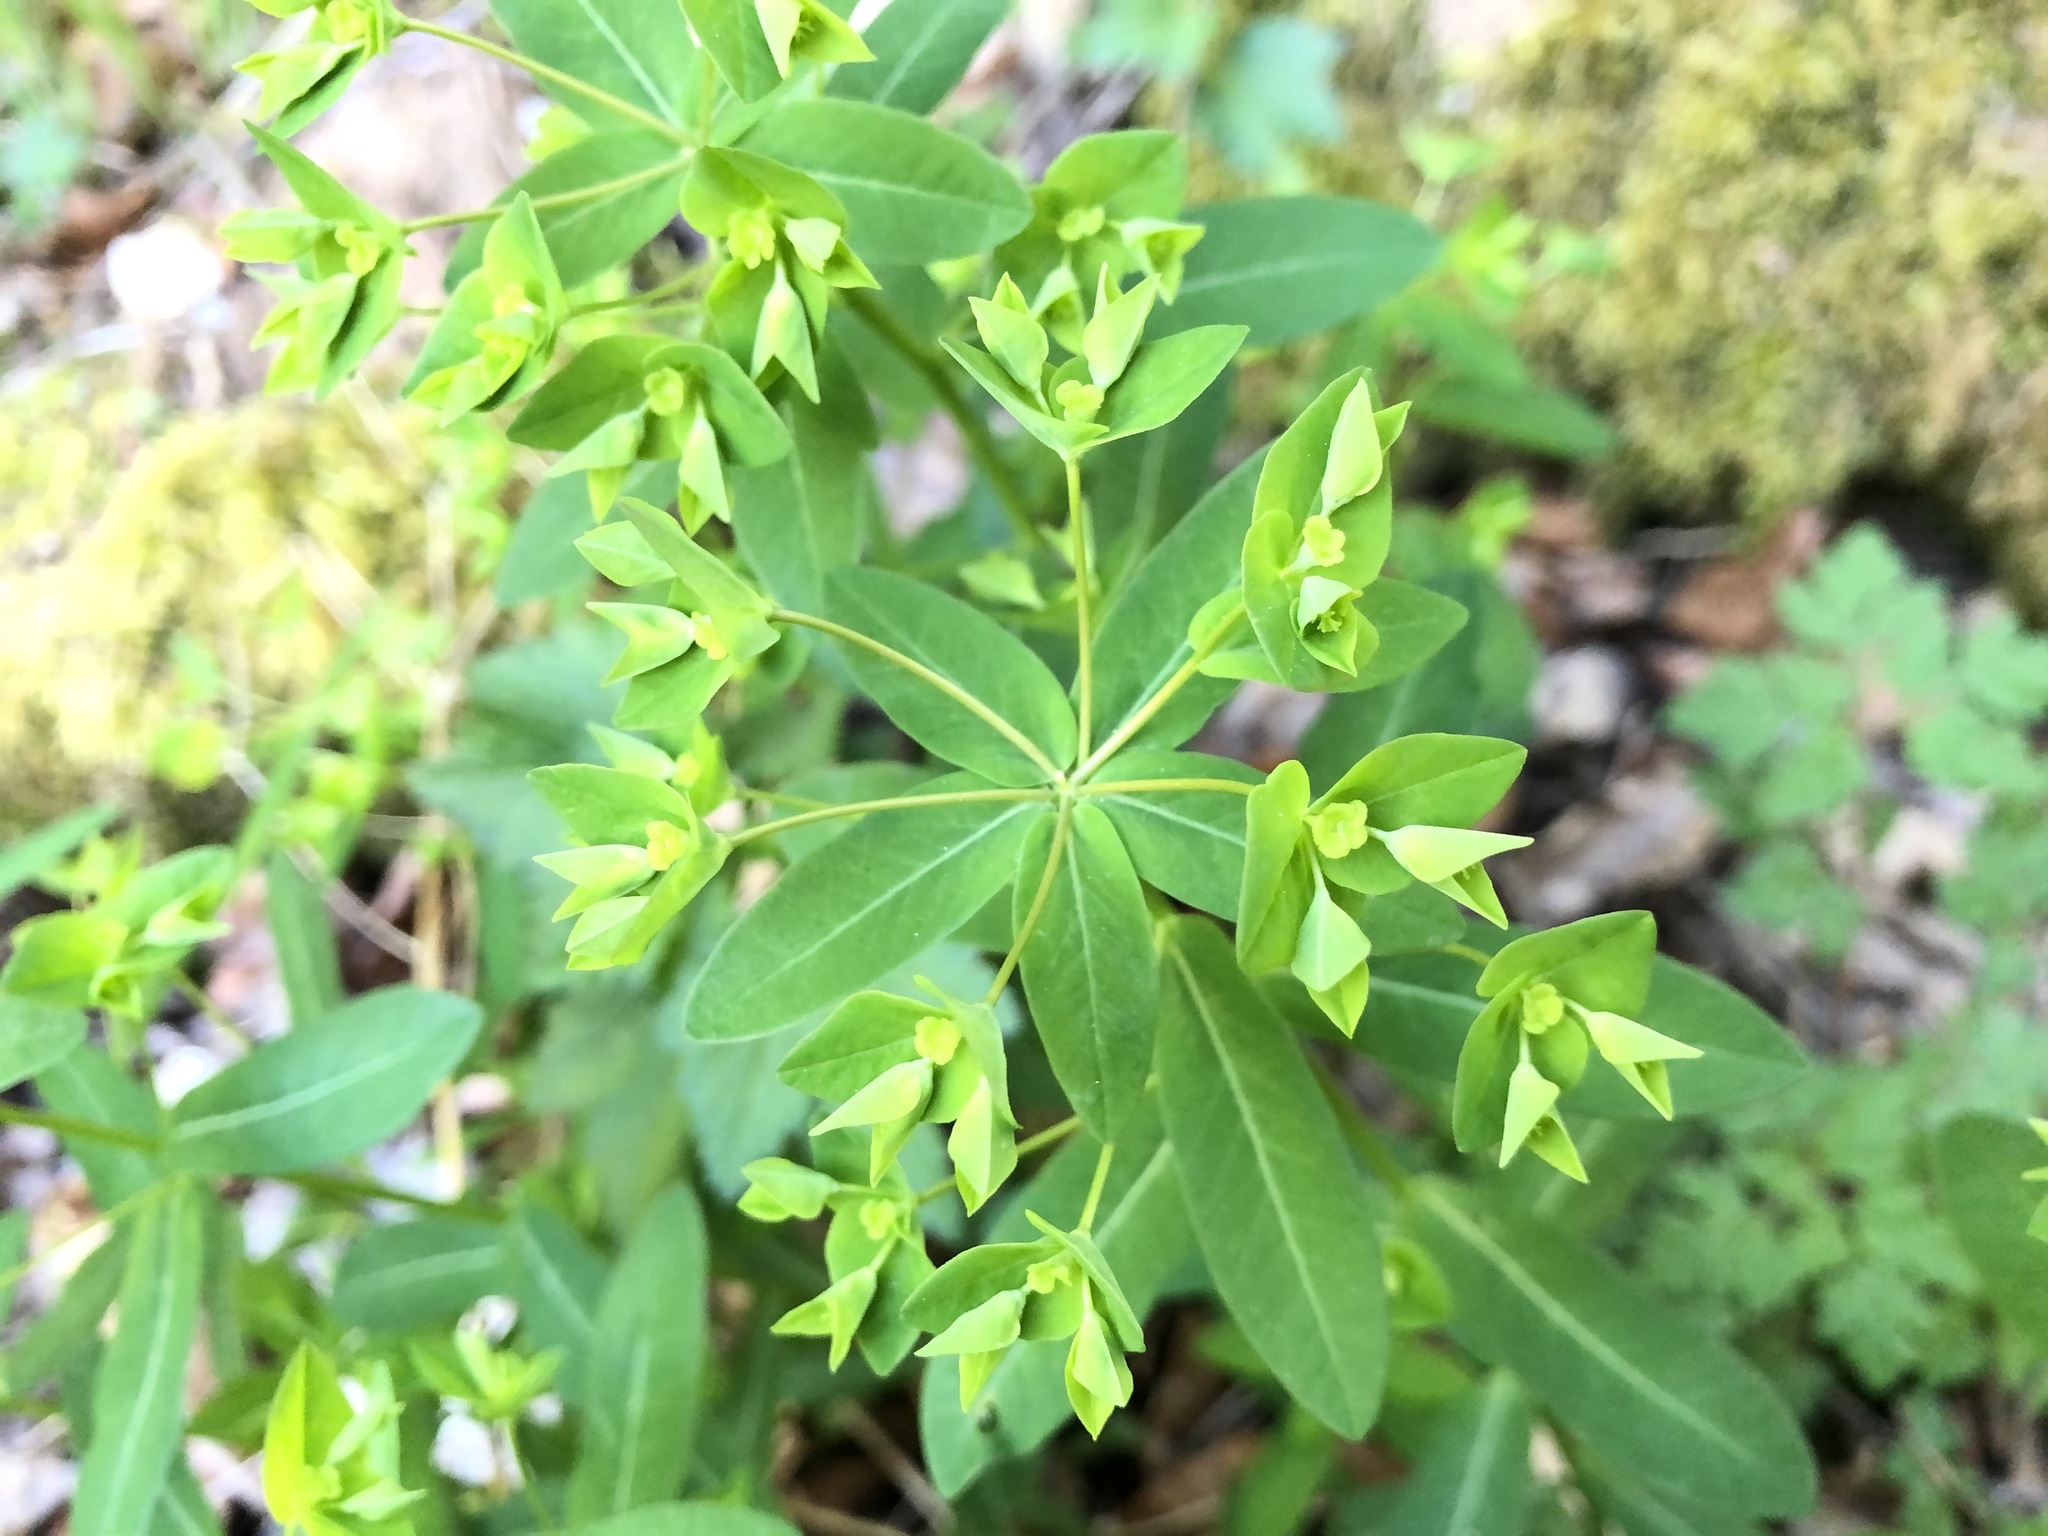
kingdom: Plantae
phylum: Tracheophyta
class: Magnoliopsida
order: Malpighiales
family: Euphorbiaceae
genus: Euphorbia
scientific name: Euphorbia dulcis
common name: Sweet spurge
